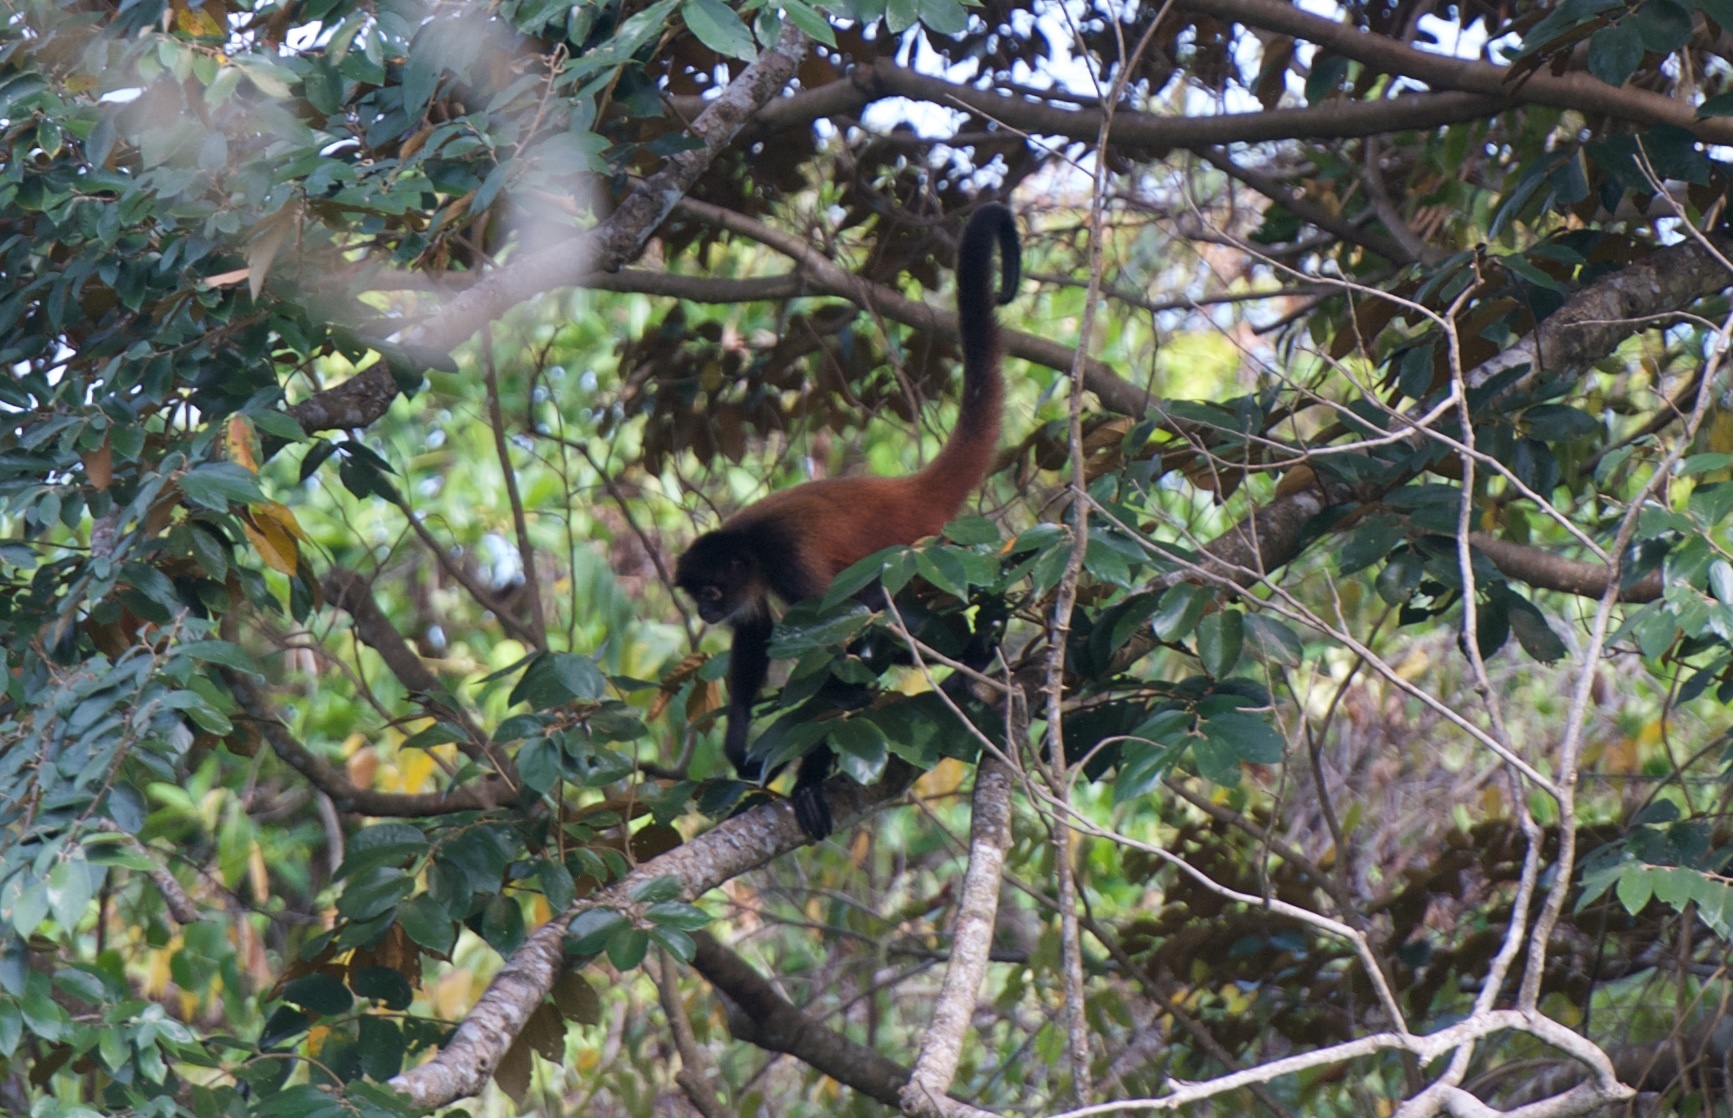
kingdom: Animalia
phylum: Chordata
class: Mammalia
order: Primates
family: Atelidae
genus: Ateles
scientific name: Ateles geoffroyi
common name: Black-handed spider monkey
